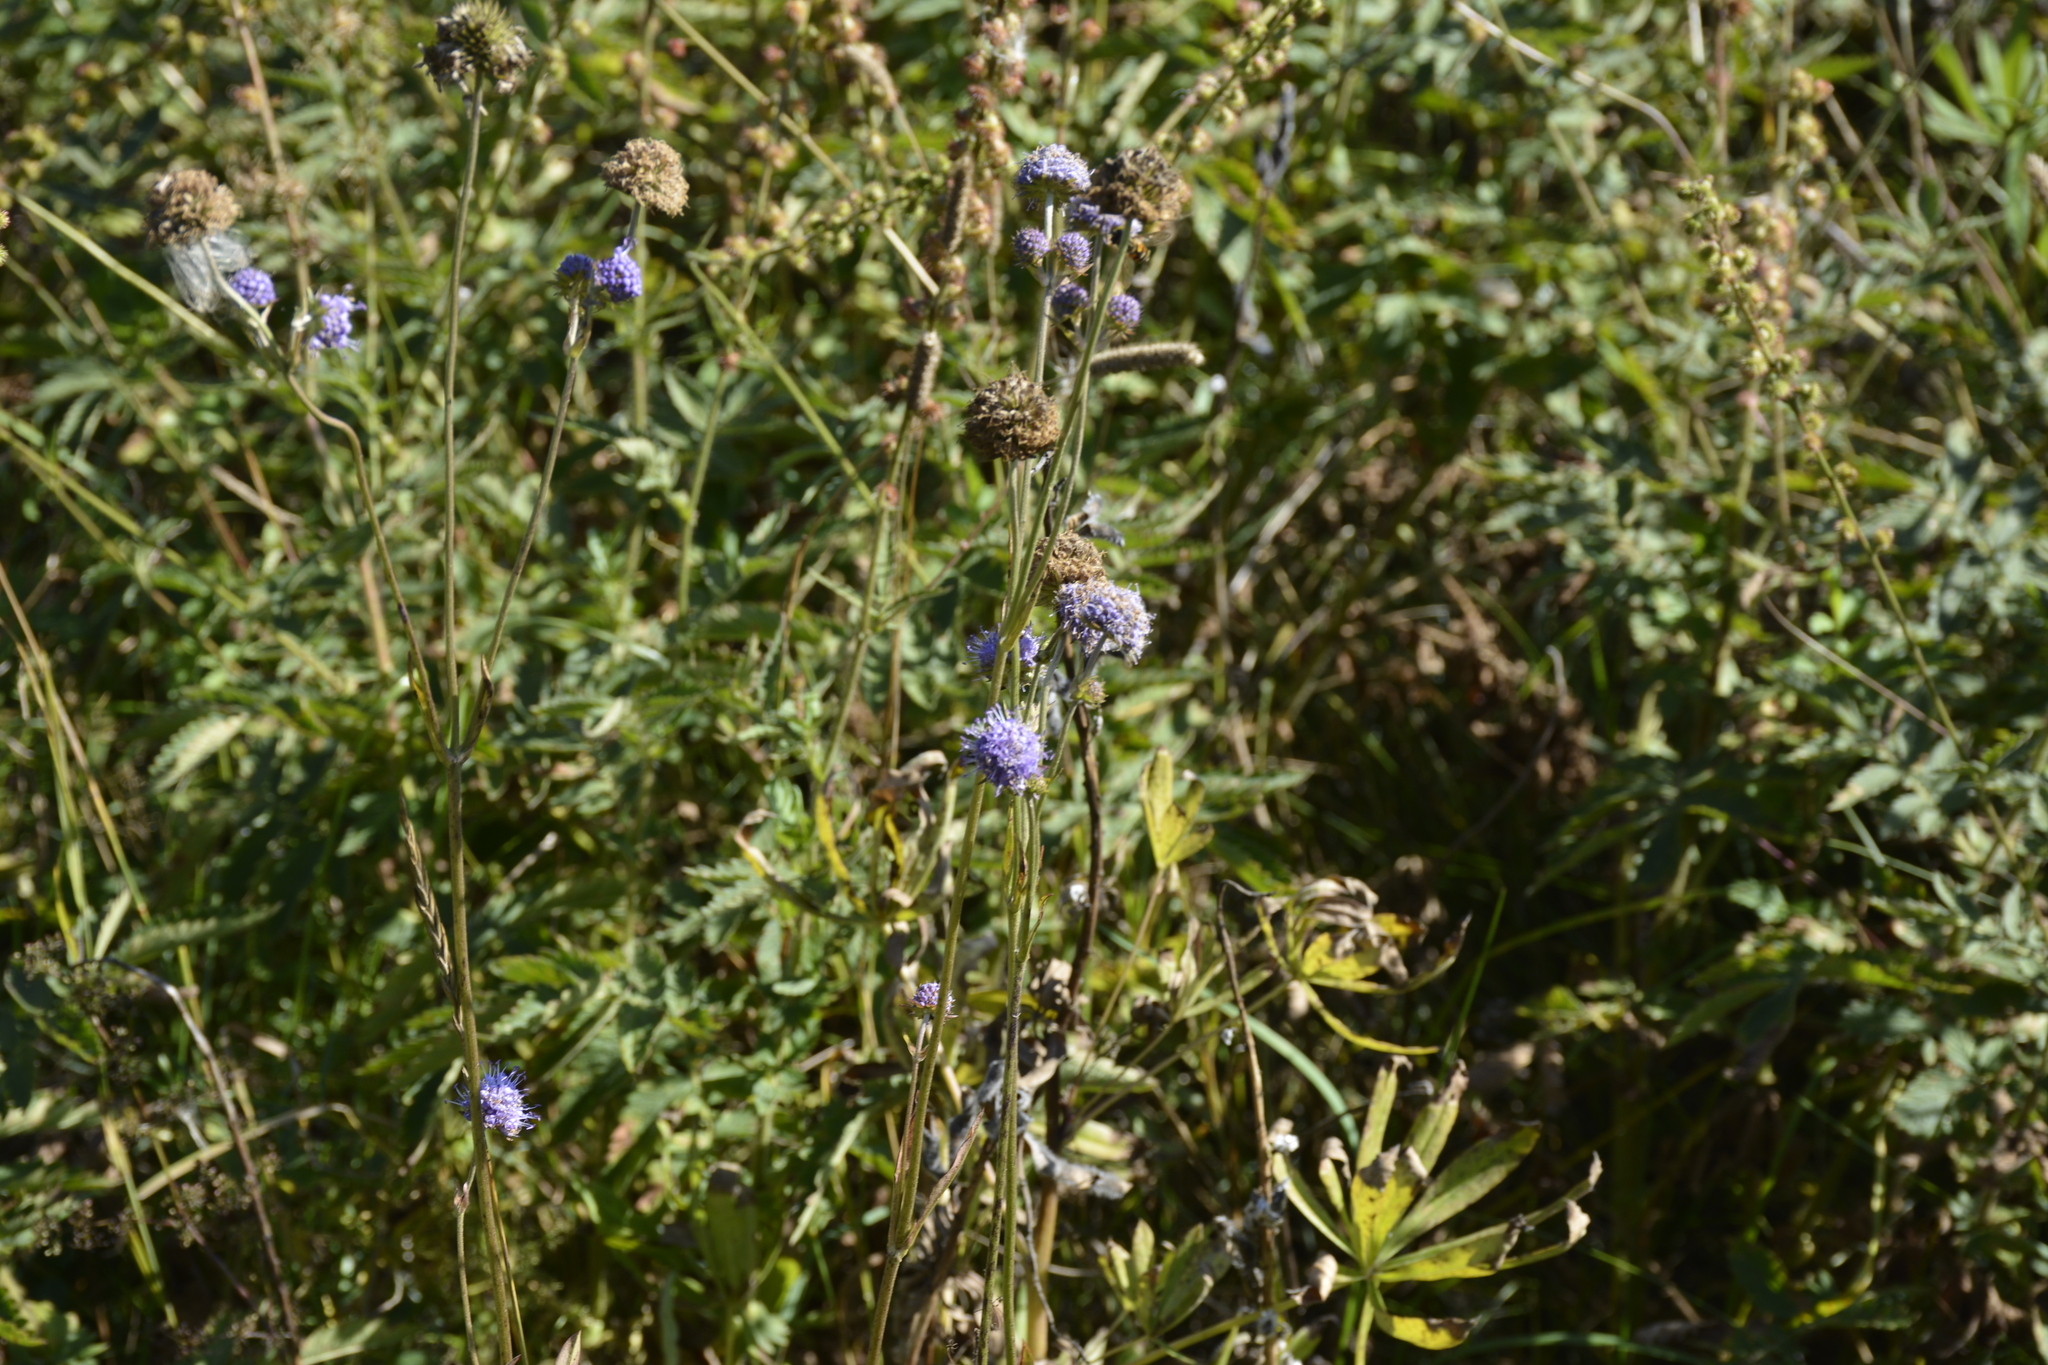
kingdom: Plantae
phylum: Tracheophyta
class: Magnoliopsida
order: Dipsacales
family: Caprifoliaceae
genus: Succisa
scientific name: Succisa pratensis
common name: Devil's-bit
